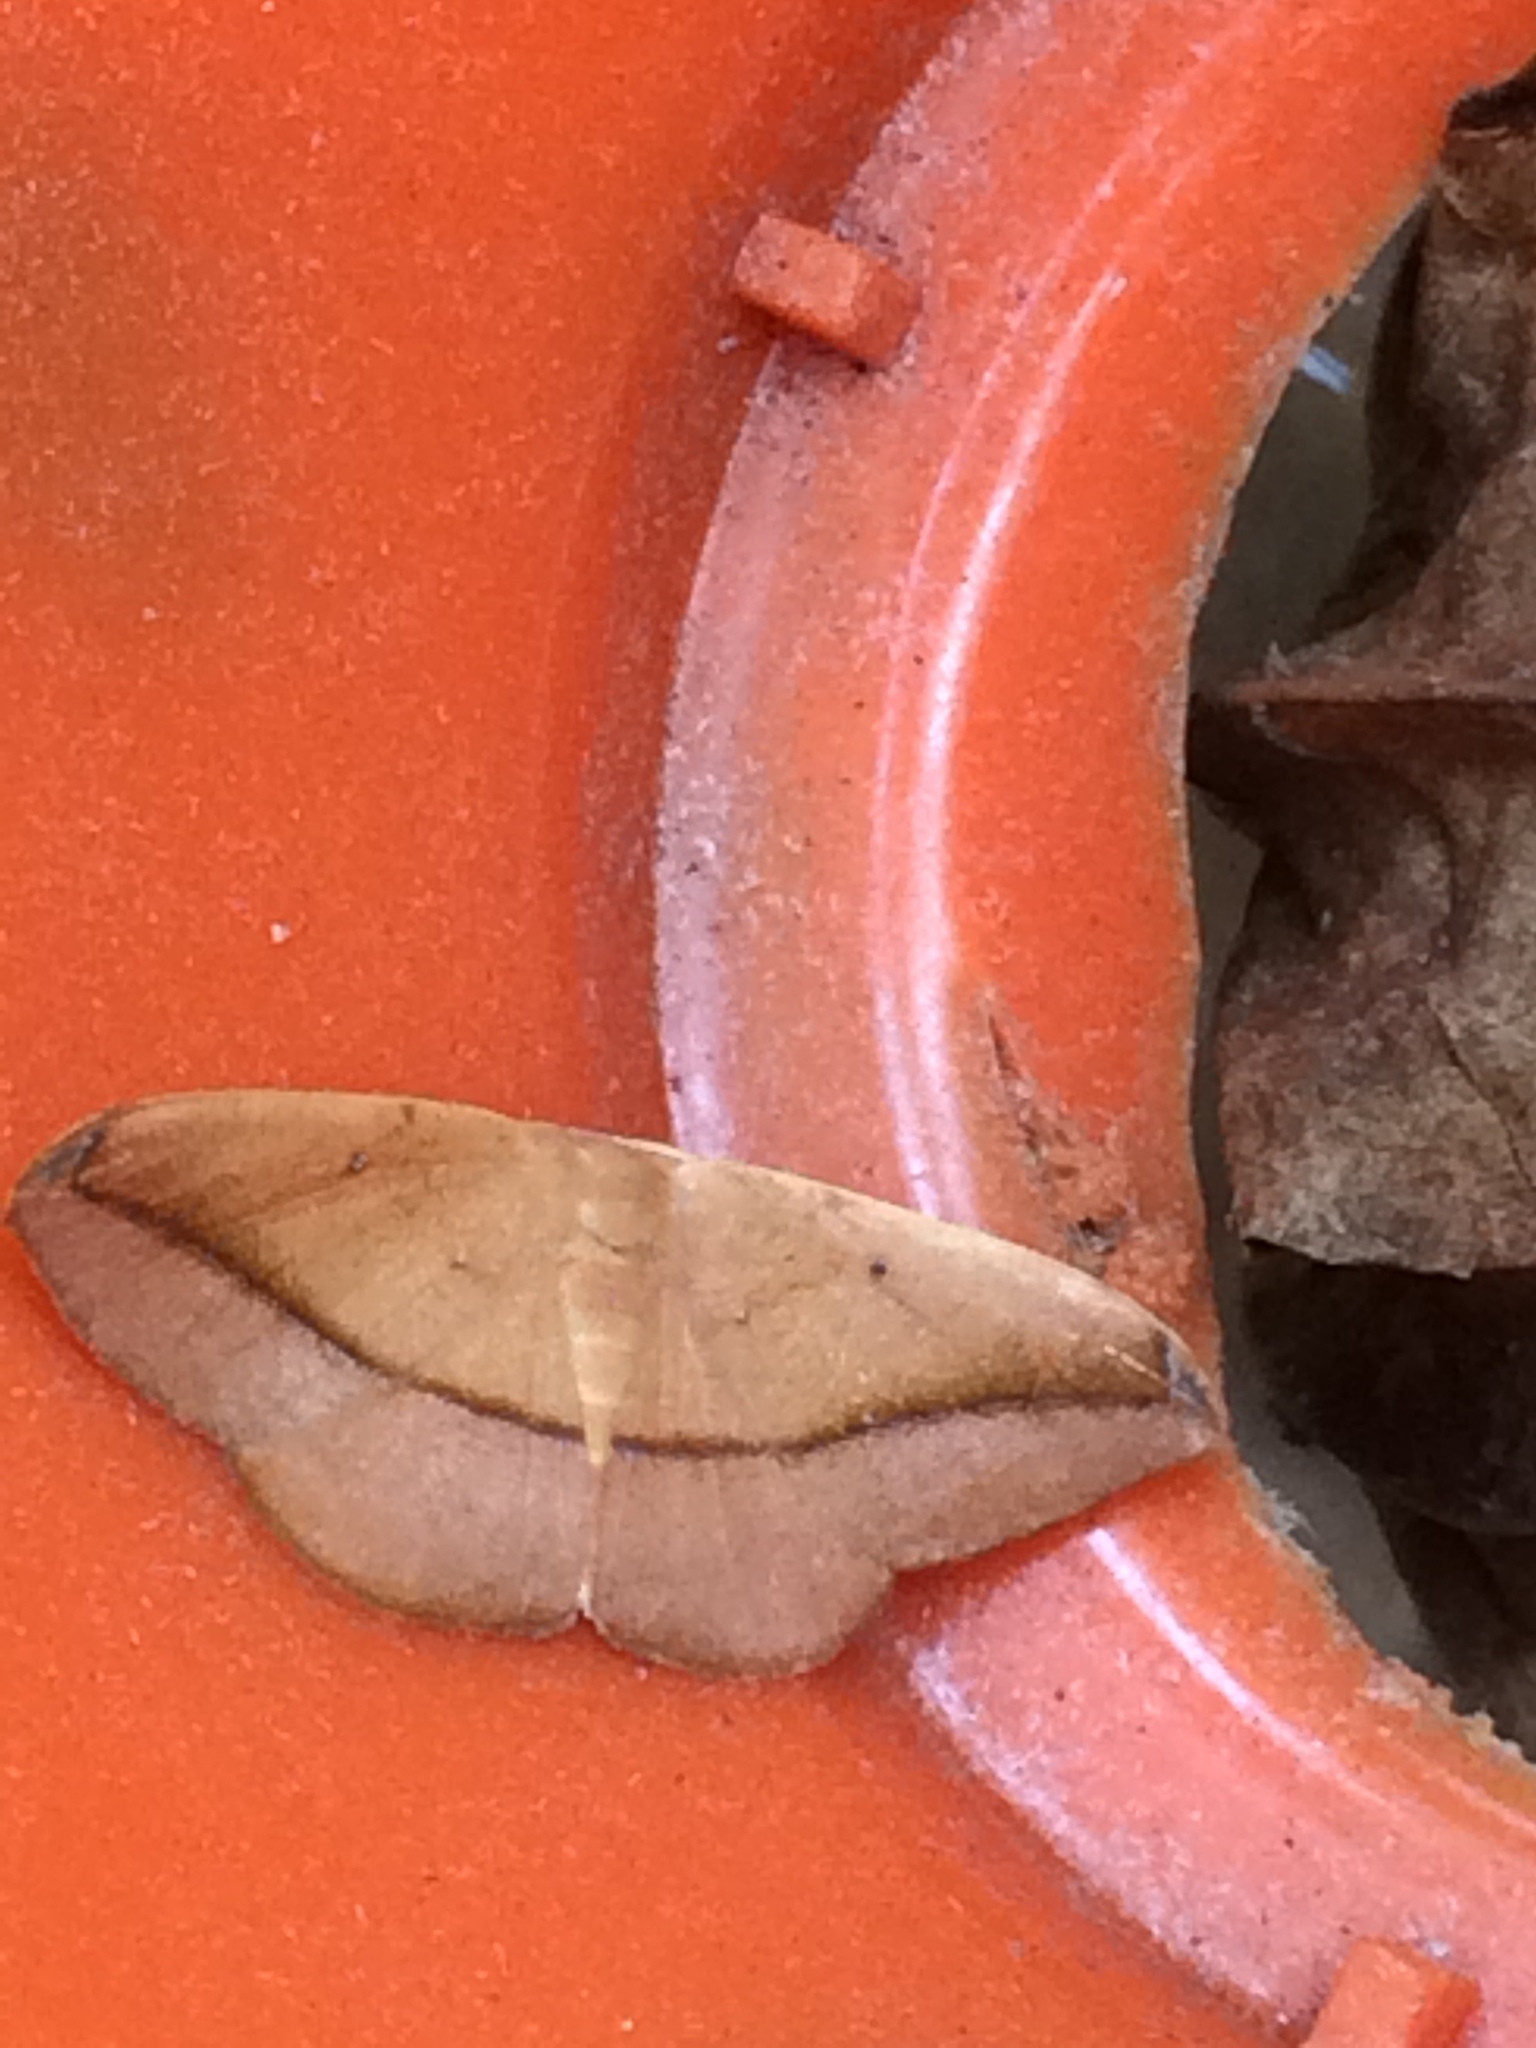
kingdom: Animalia
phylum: Arthropoda
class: Insecta
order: Lepidoptera
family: Geometridae
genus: Patalene
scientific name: Patalene olyzonaria
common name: Juniper geometer moth
